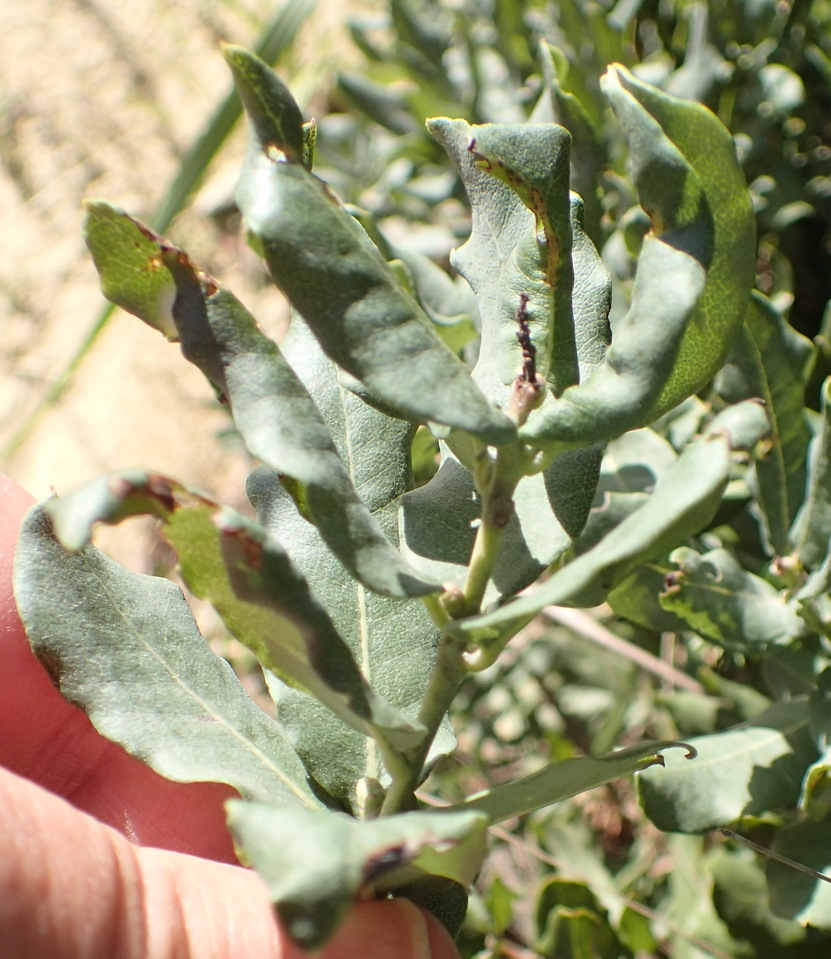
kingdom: Plantae
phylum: Tracheophyta
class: Magnoliopsida
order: Fagales
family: Myricaceae
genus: Morella
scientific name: Morella humilis
